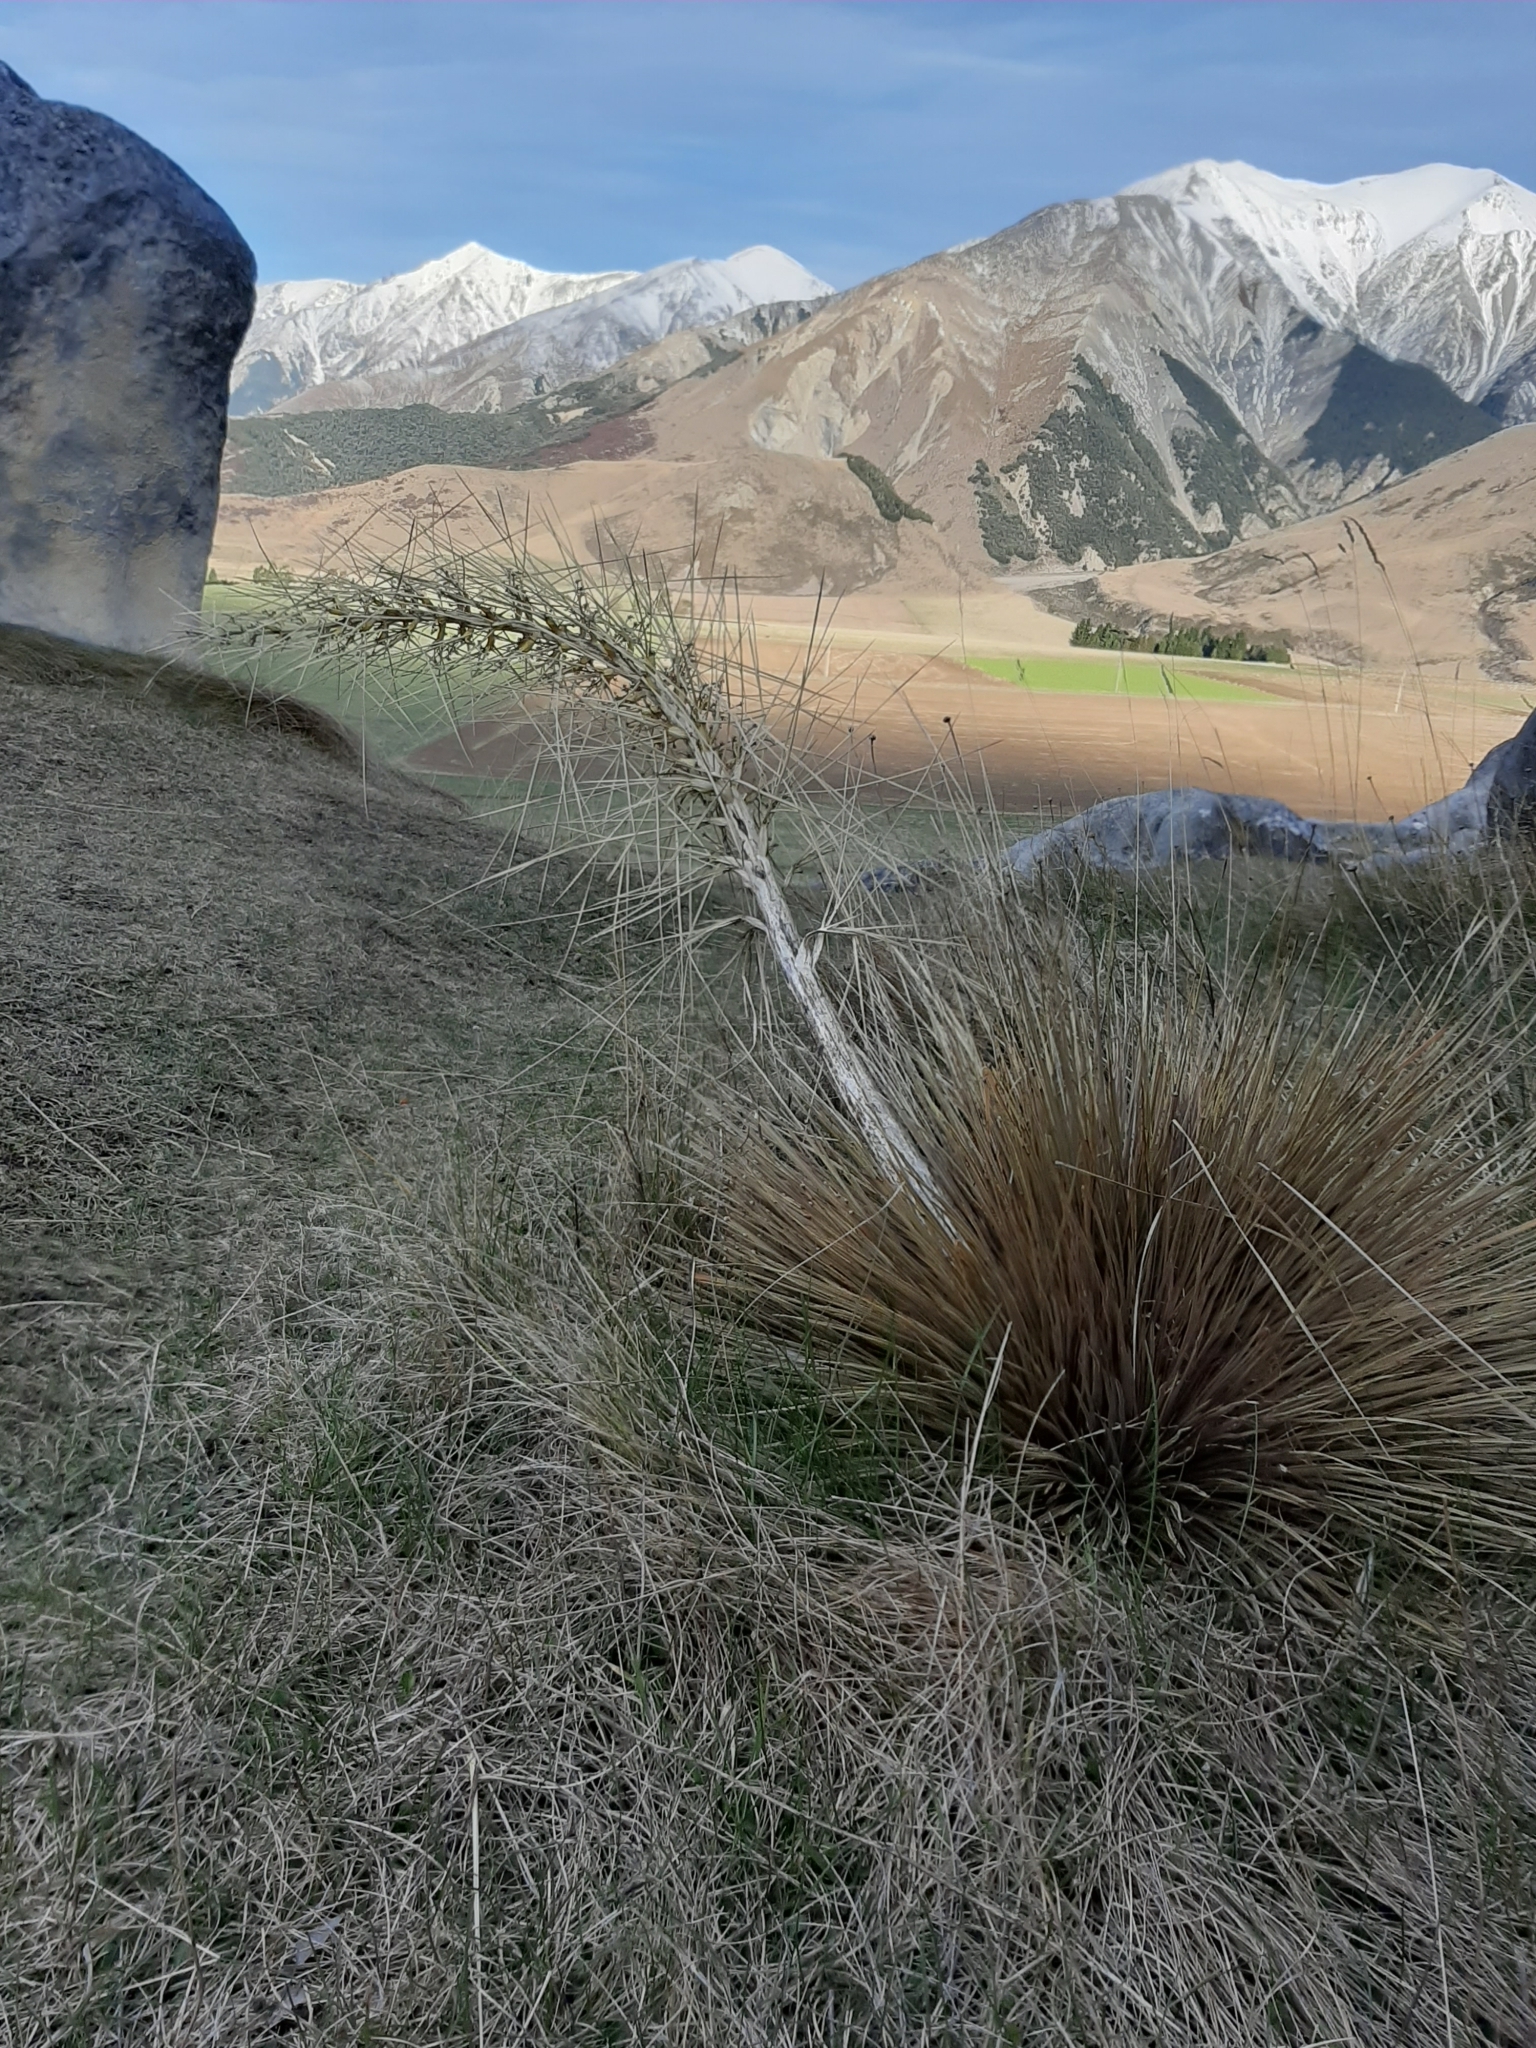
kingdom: Plantae
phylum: Tracheophyta
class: Magnoliopsida
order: Apiales
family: Apiaceae
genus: Aciphylla
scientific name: Aciphylla subflabellata
